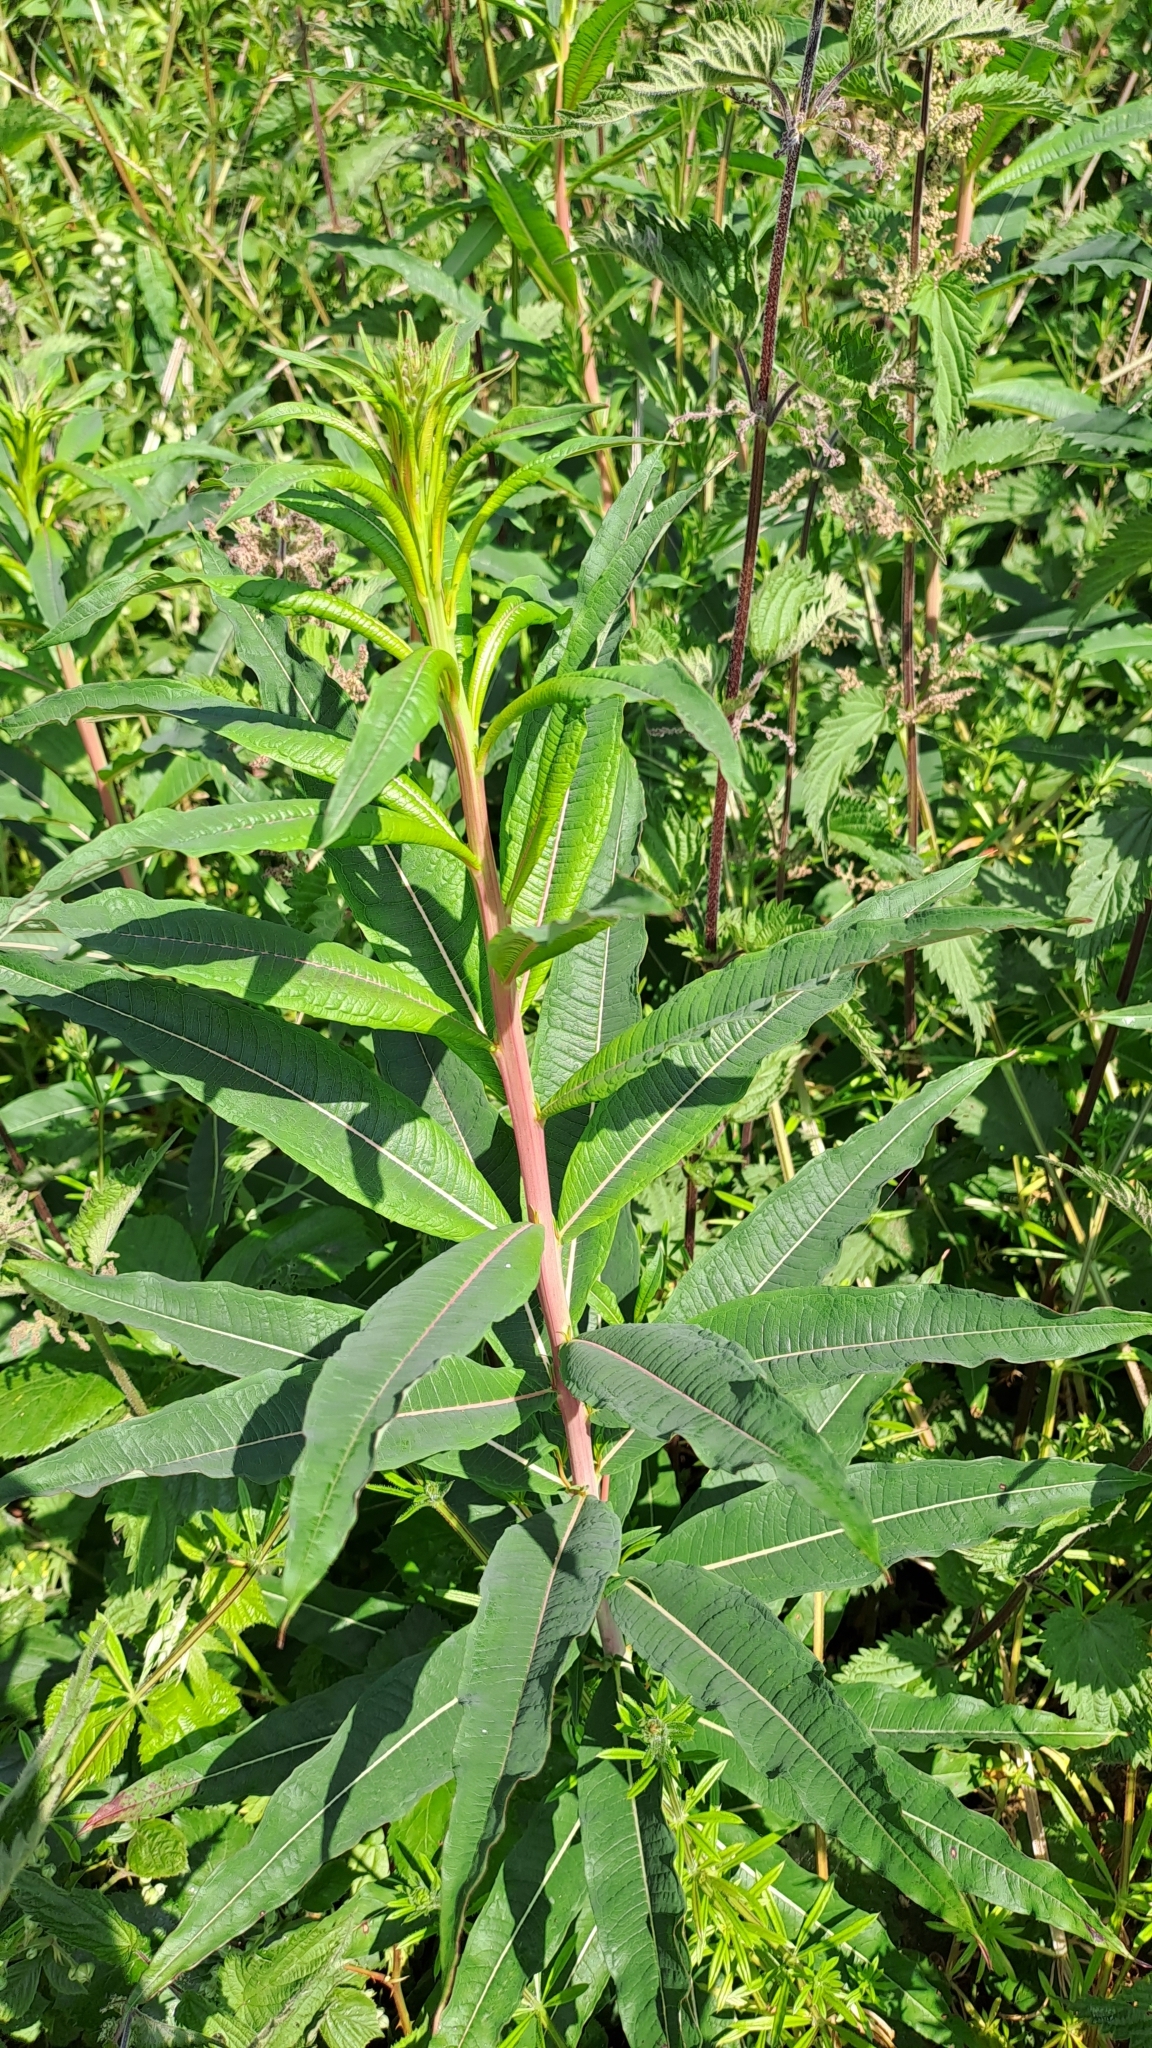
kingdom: Plantae
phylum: Tracheophyta
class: Magnoliopsida
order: Myrtales
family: Onagraceae
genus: Chamaenerion
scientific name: Chamaenerion angustifolium
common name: Fireweed
